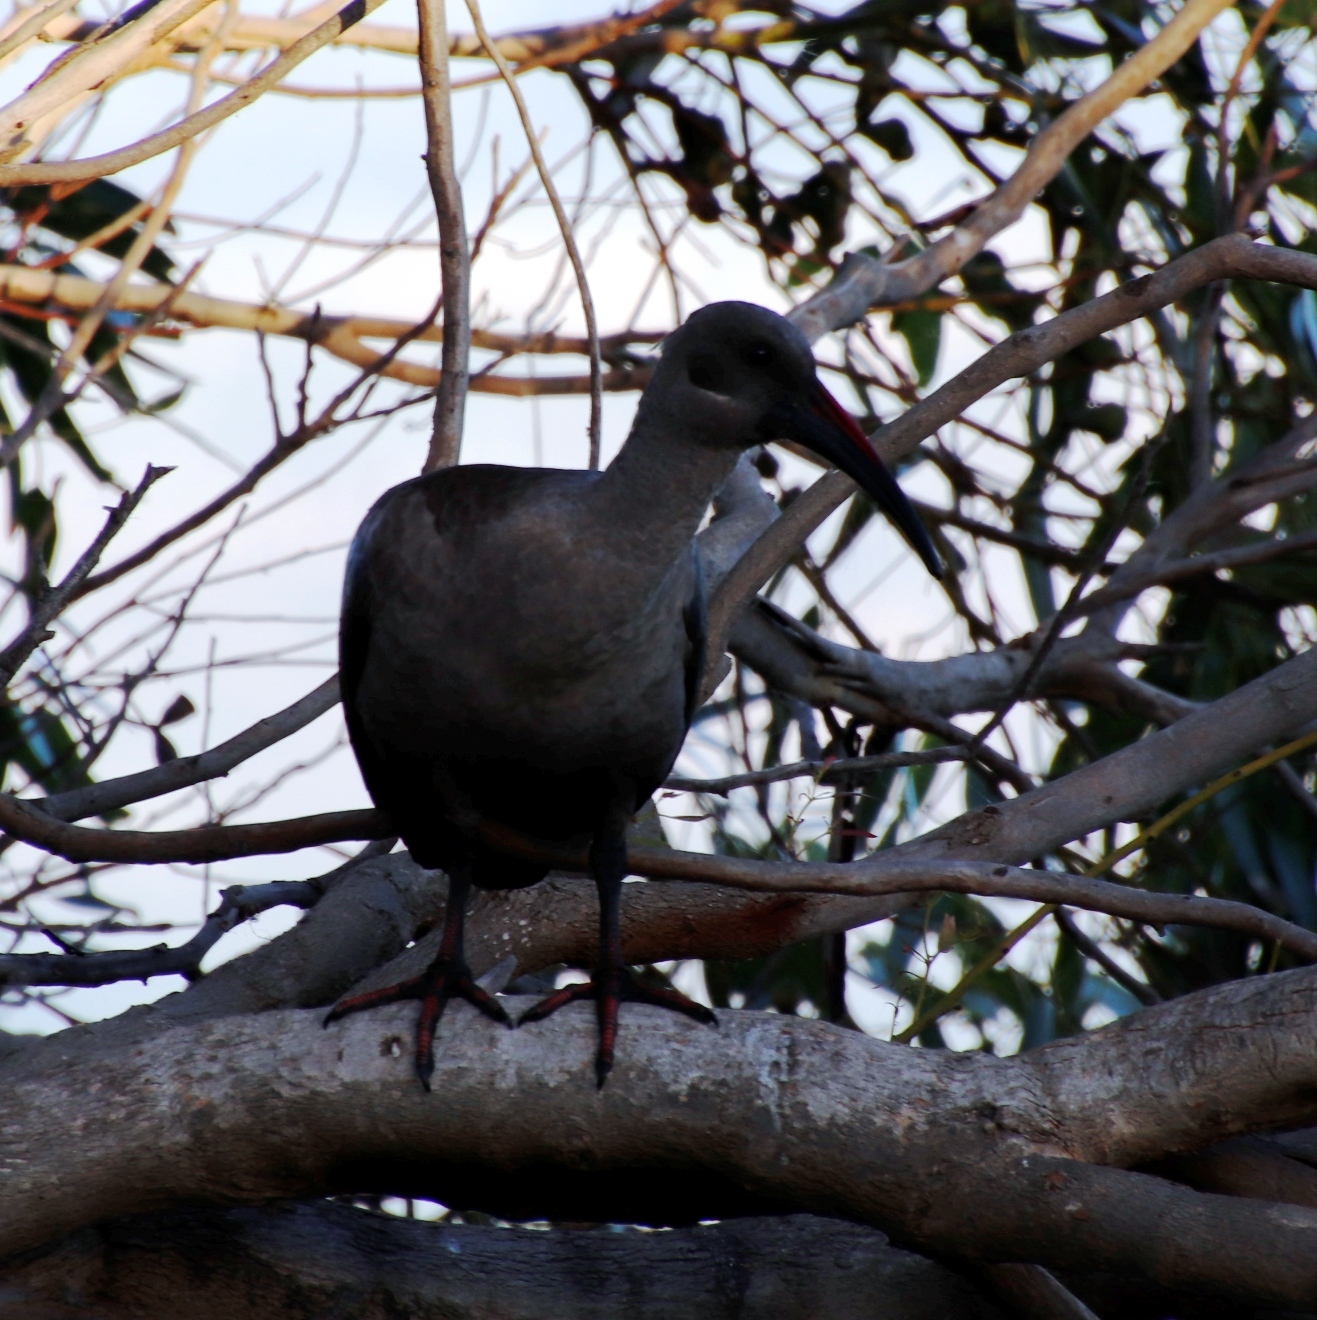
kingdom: Animalia
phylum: Chordata
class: Aves
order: Pelecaniformes
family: Threskiornithidae
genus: Bostrychia
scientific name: Bostrychia hagedash
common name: Hadada ibis
